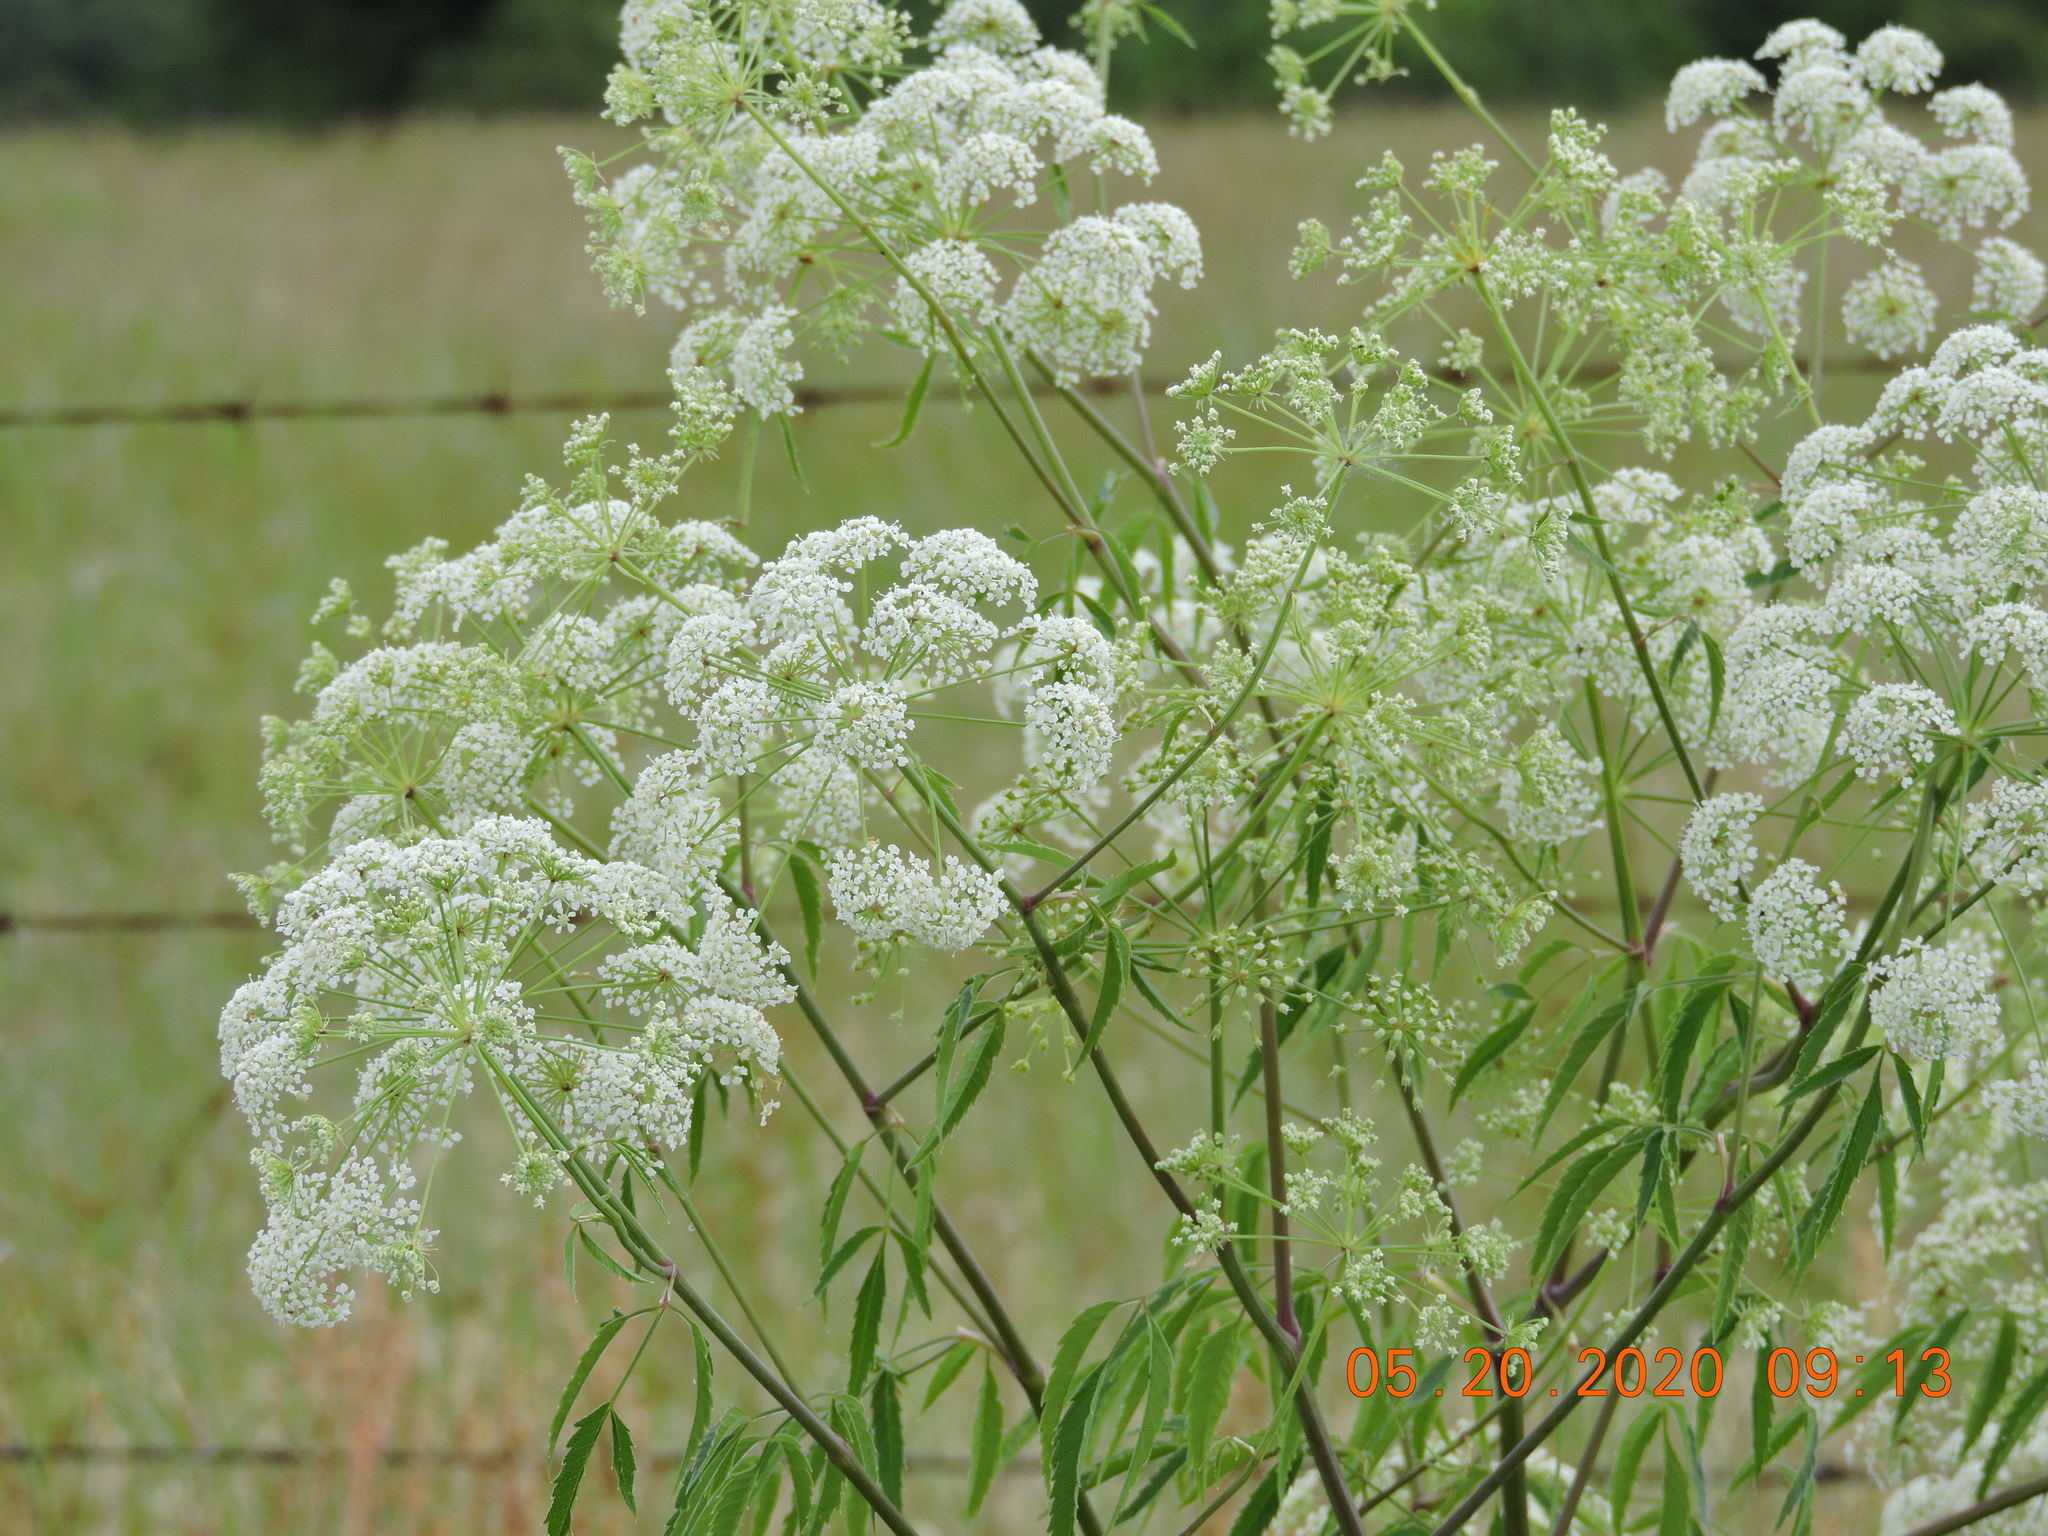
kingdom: Plantae
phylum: Tracheophyta
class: Magnoliopsida
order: Apiales
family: Apiaceae
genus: Cicuta
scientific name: Cicuta maculata
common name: Spotted cowbane
